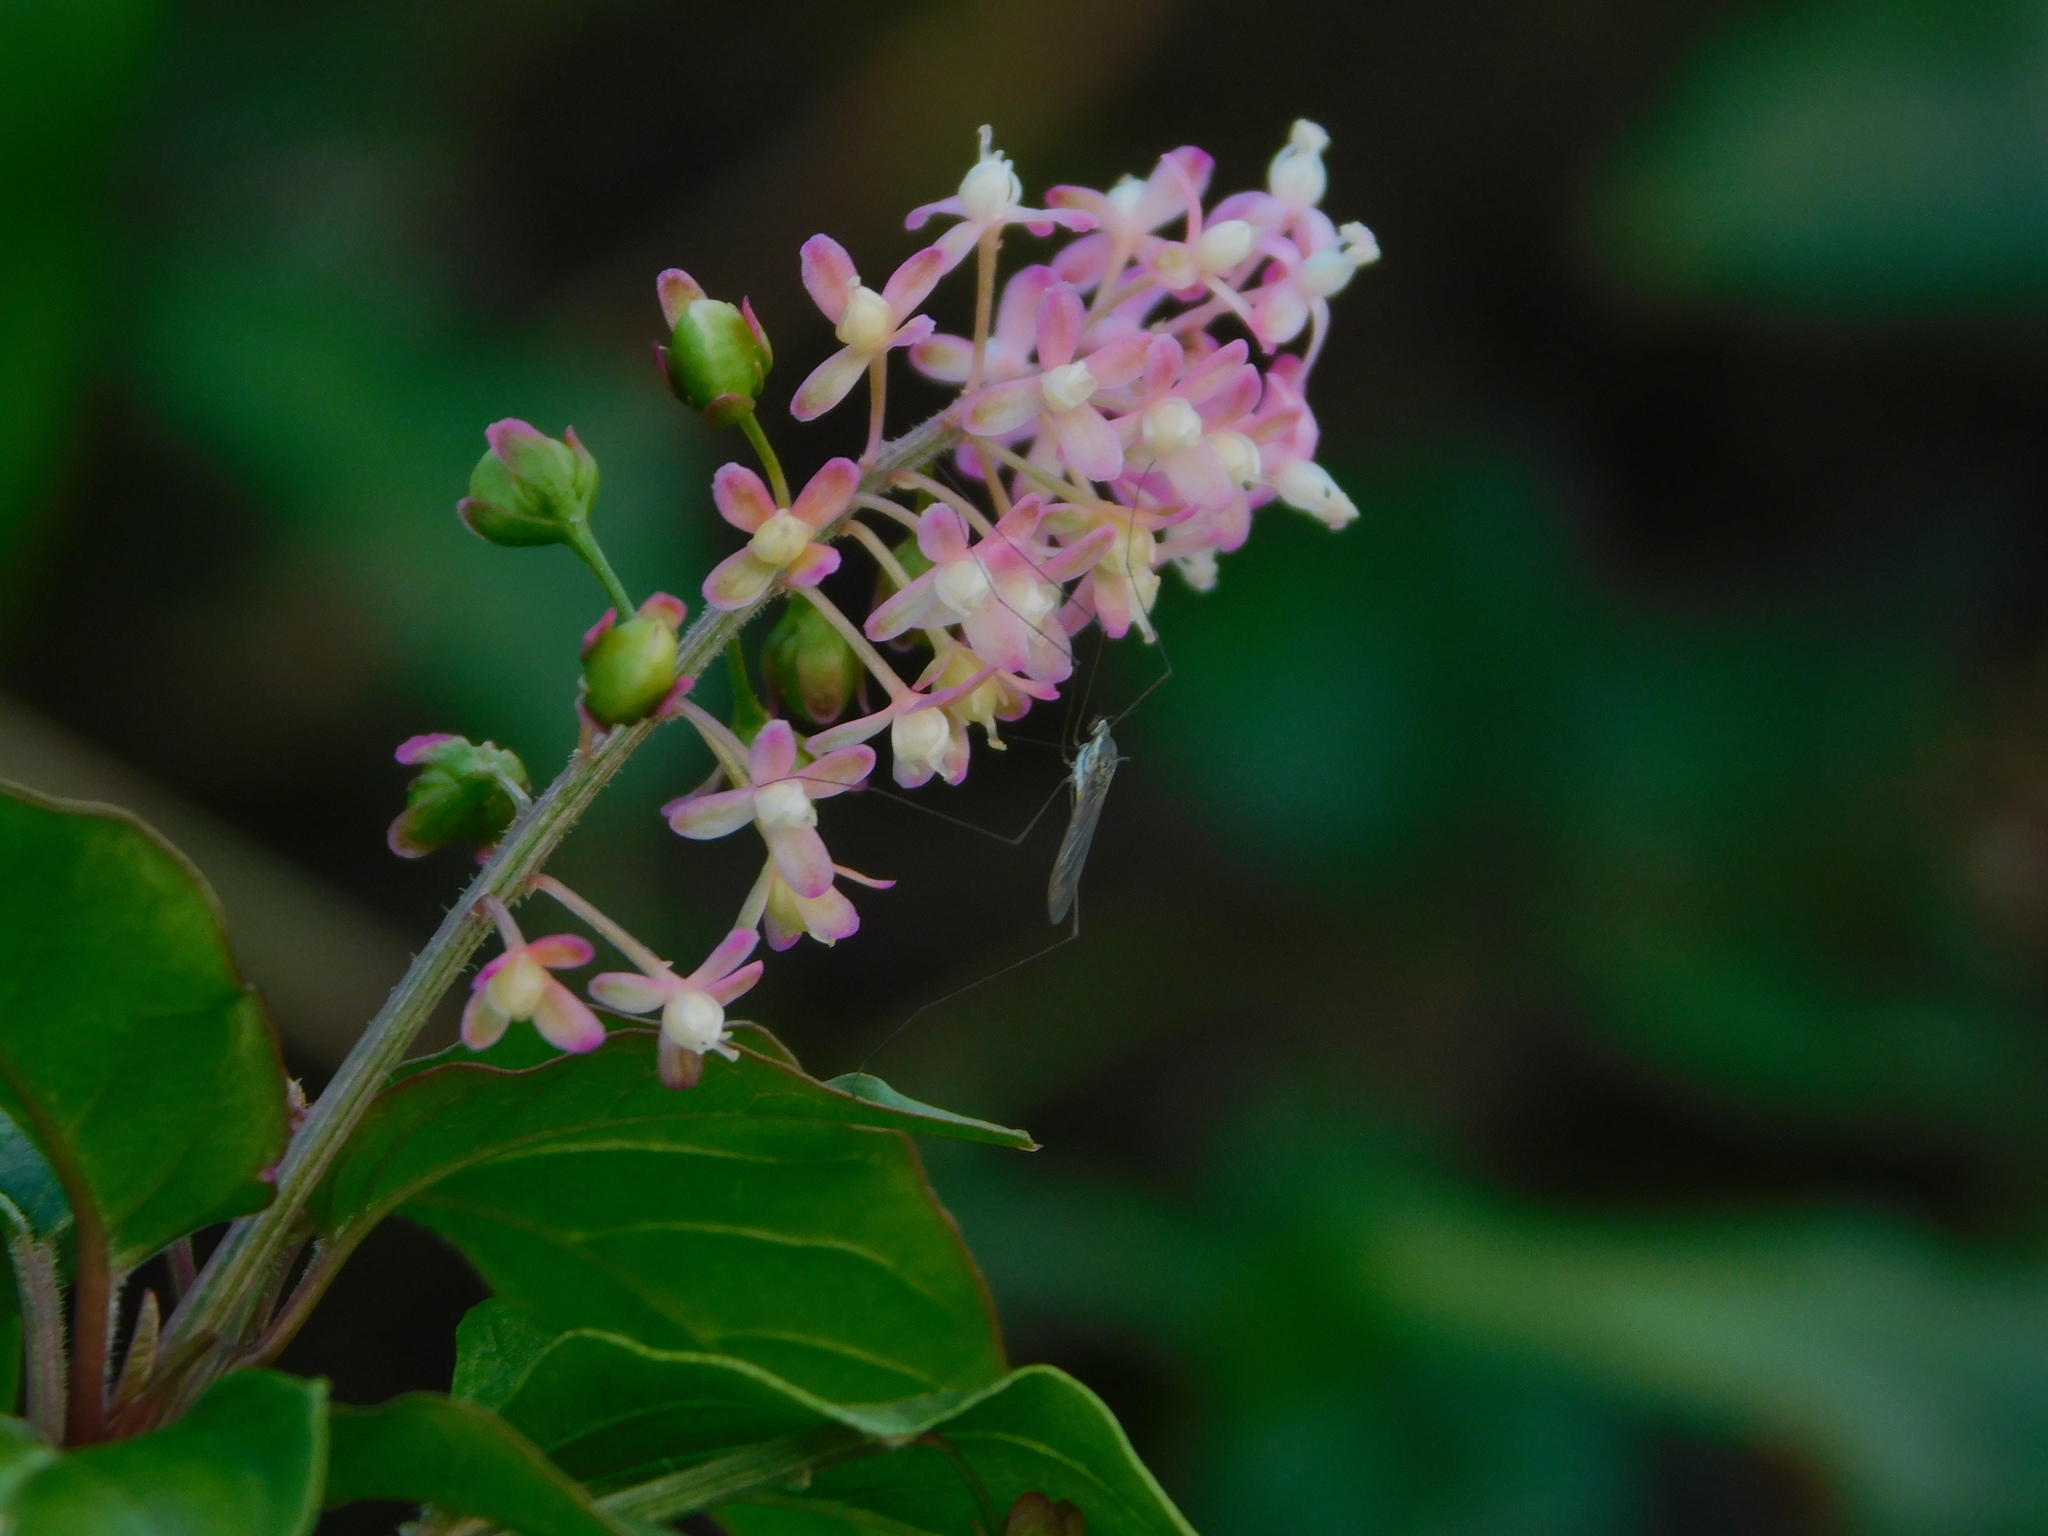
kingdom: Plantae
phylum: Tracheophyta
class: Magnoliopsida
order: Caryophyllales
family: Phytolaccaceae
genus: Rivina
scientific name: Rivina humilis
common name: Rougeplant
